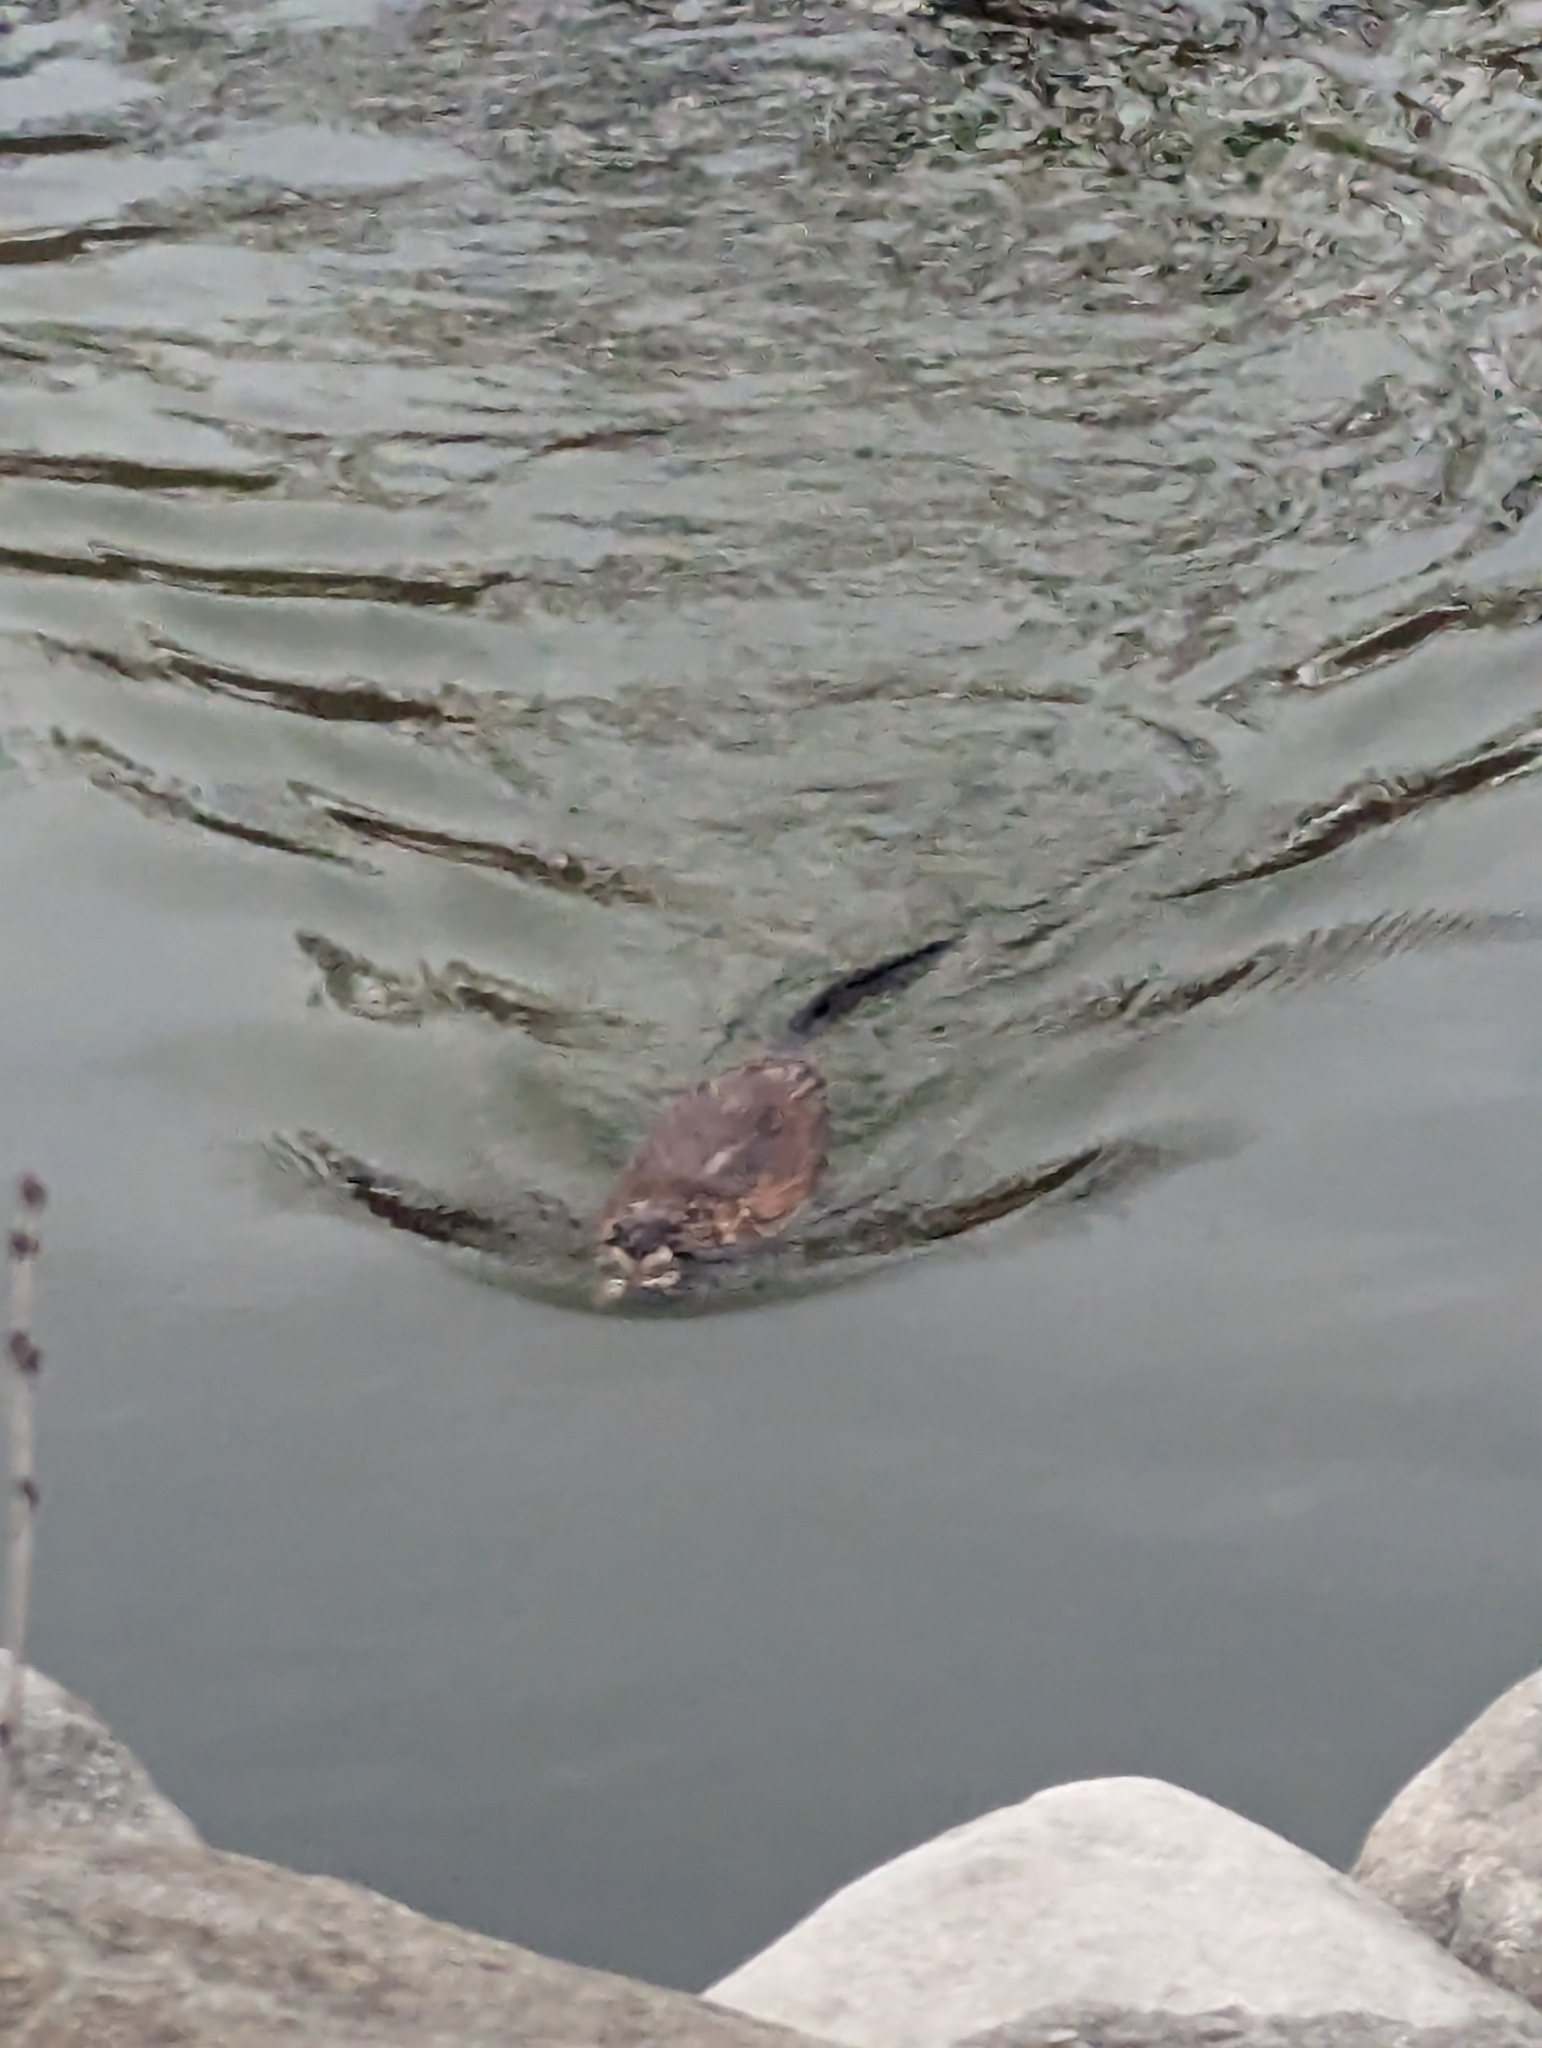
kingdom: Animalia
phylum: Chordata
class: Mammalia
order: Rodentia
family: Cricetidae
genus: Ondatra
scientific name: Ondatra zibethicus
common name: Muskrat
